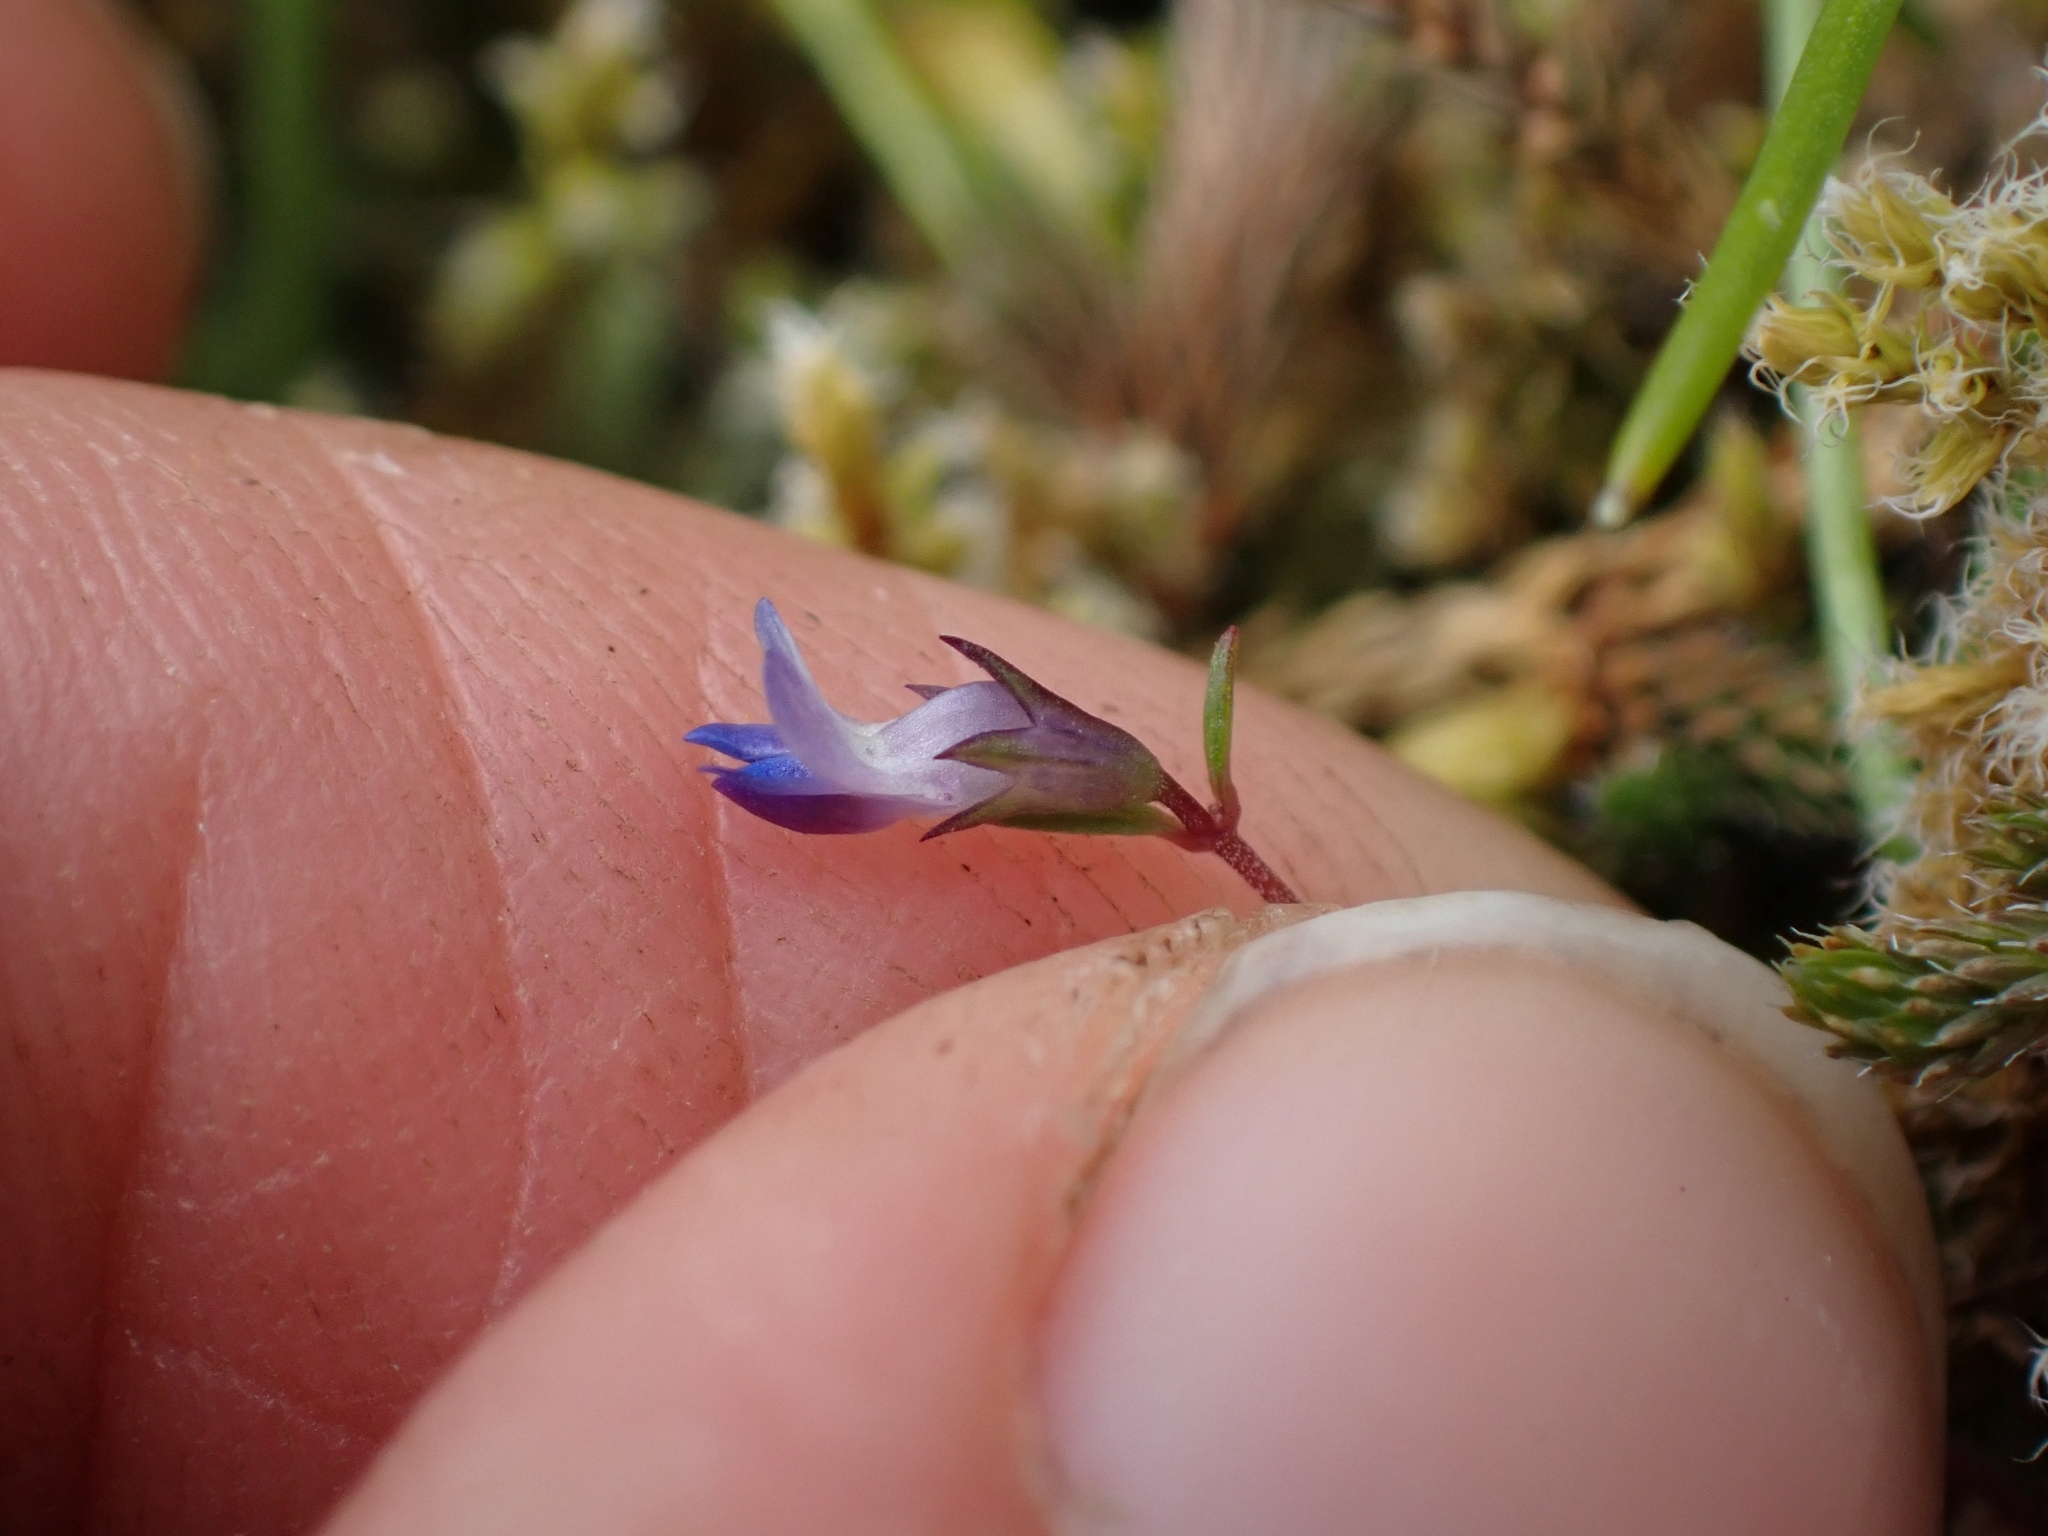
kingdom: Plantae
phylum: Tracheophyta
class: Magnoliopsida
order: Lamiales
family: Plantaginaceae
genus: Collinsia
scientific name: Collinsia parviflora
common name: Blue-lips
